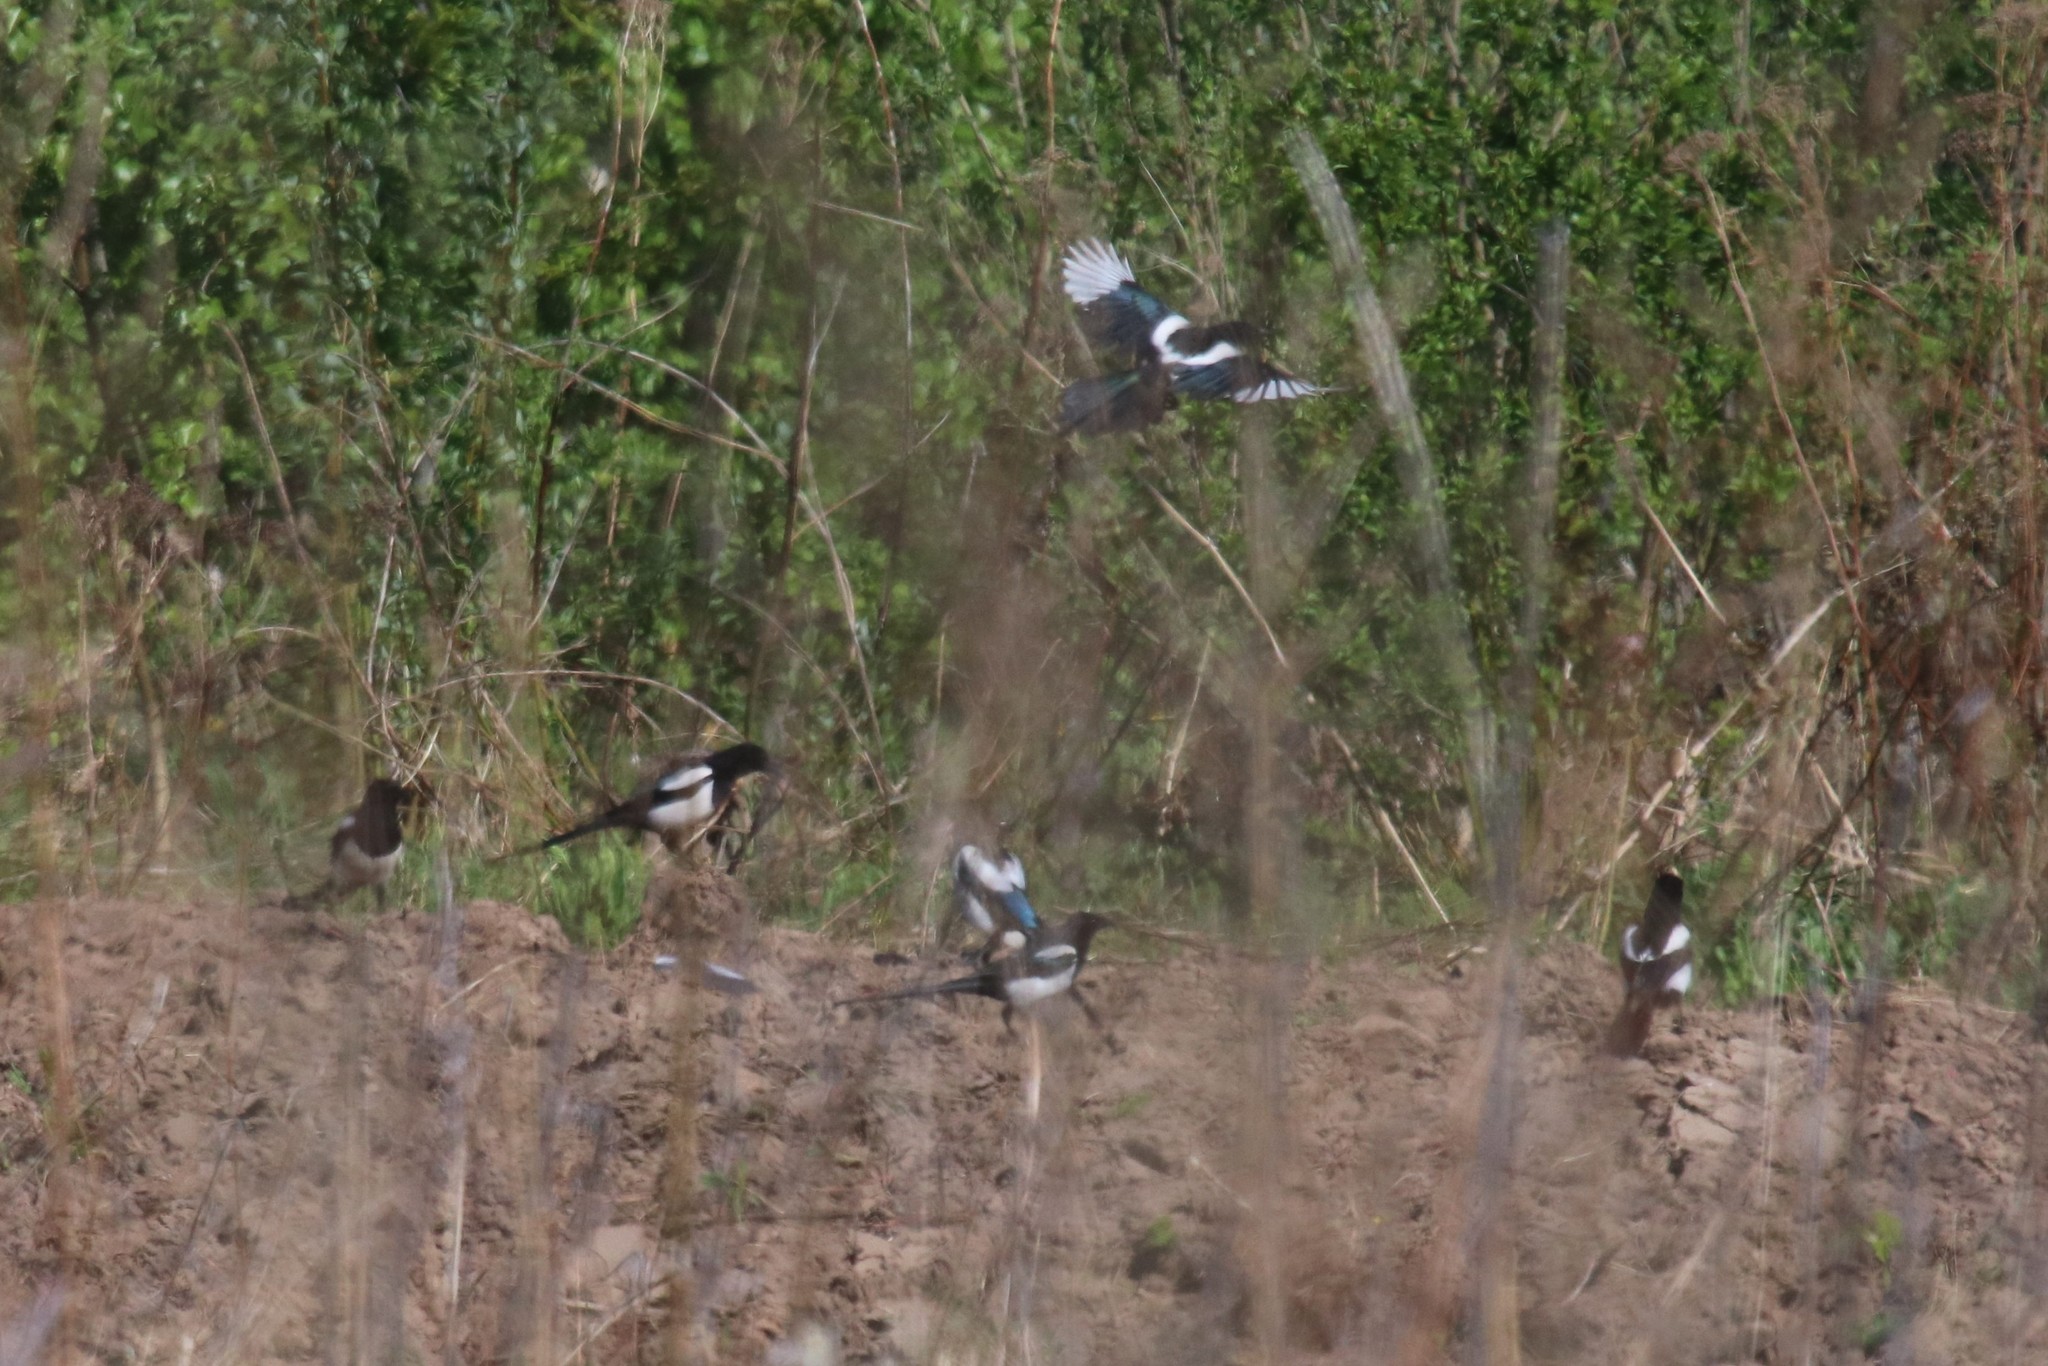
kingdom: Animalia
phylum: Chordata
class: Aves
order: Passeriformes
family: Corvidae
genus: Pica
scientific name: Pica pica
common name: Eurasian magpie
